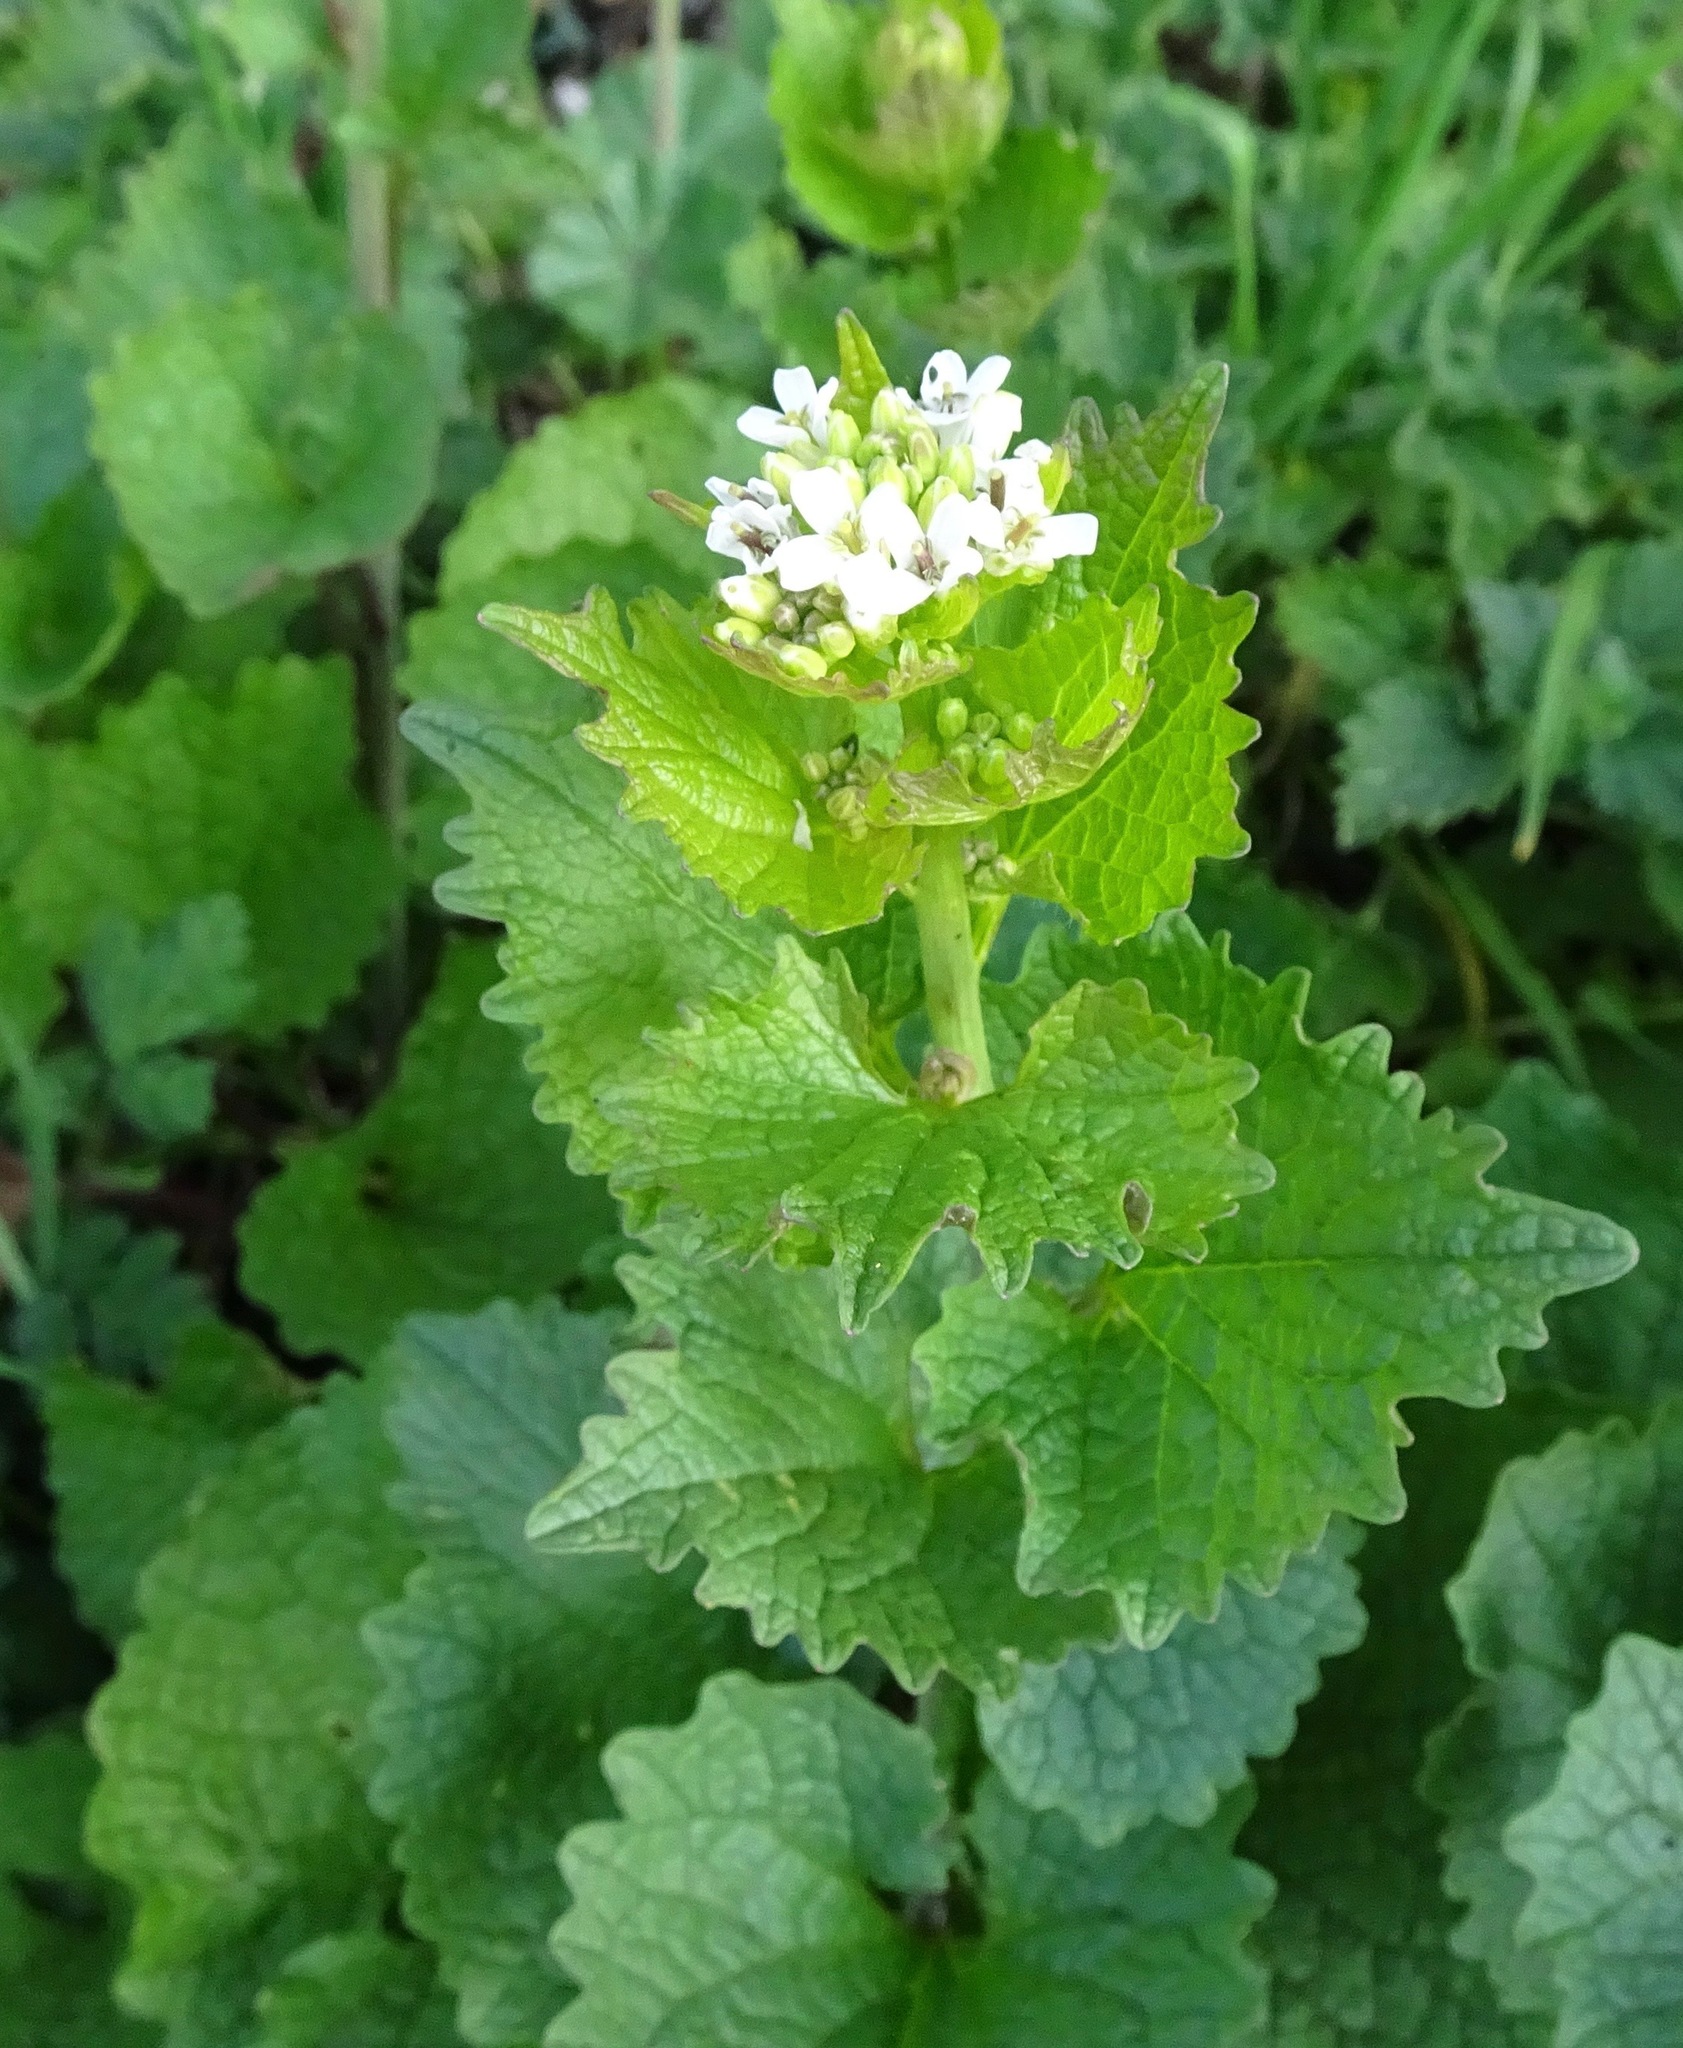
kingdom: Plantae
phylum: Tracheophyta
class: Magnoliopsida
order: Brassicales
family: Brassicaceae
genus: Alliaria
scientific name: Alliaria petiolata
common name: Garlic mustard
